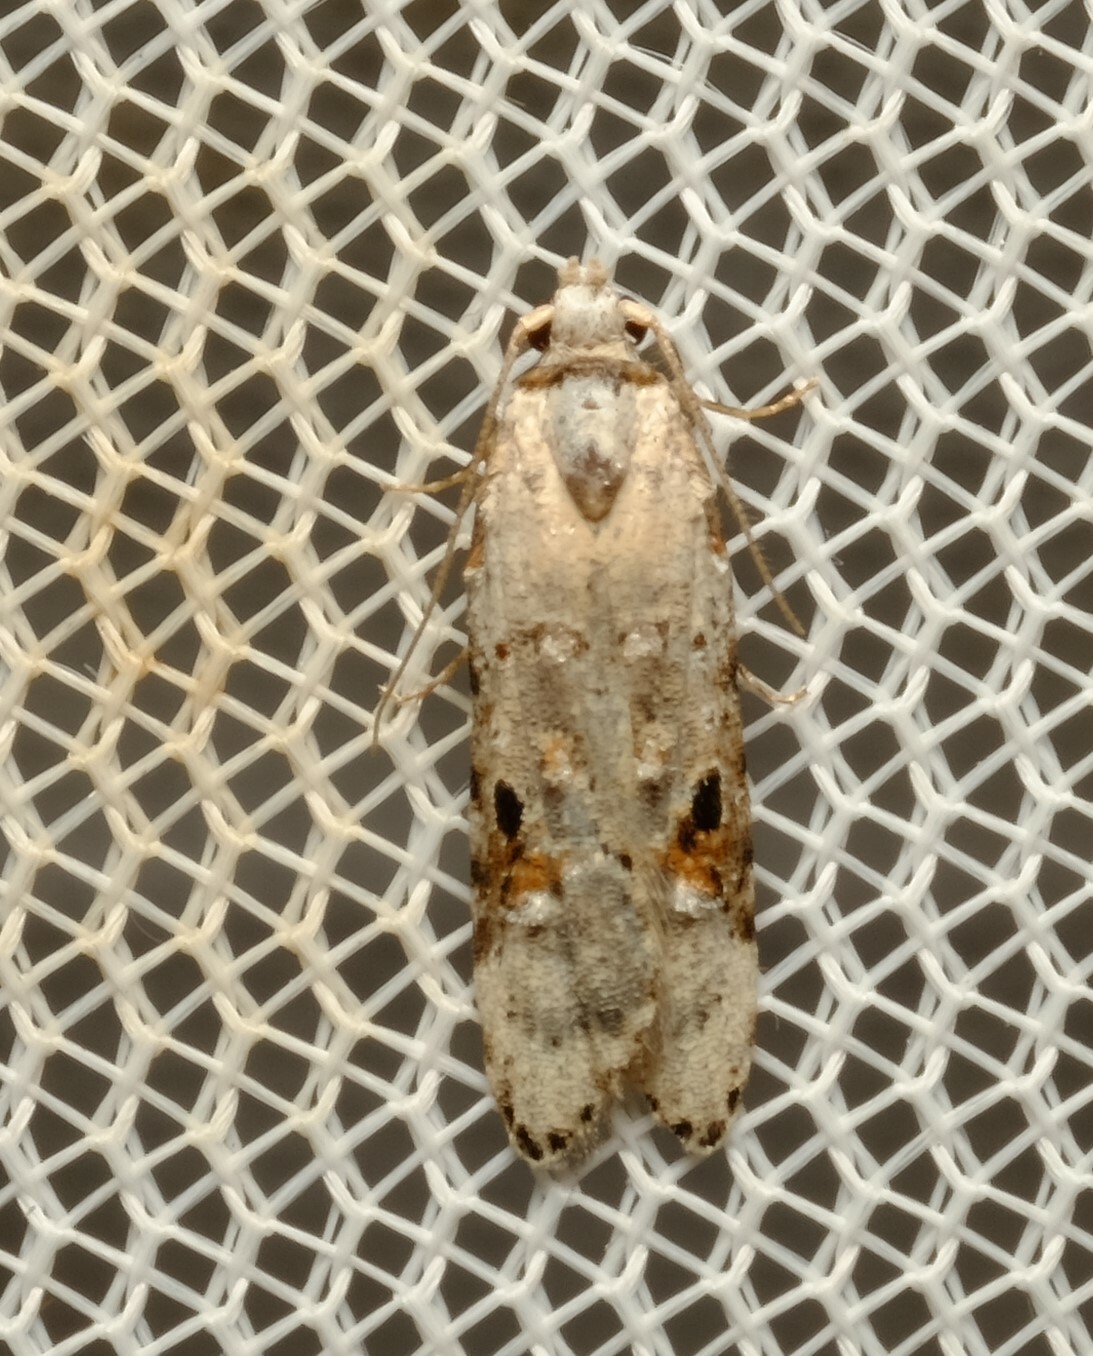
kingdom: Animalia
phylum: Arthropoda
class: Insecta
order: Lepidoptera
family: Carposinidae
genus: Sosineura
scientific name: Sosineura mimica
